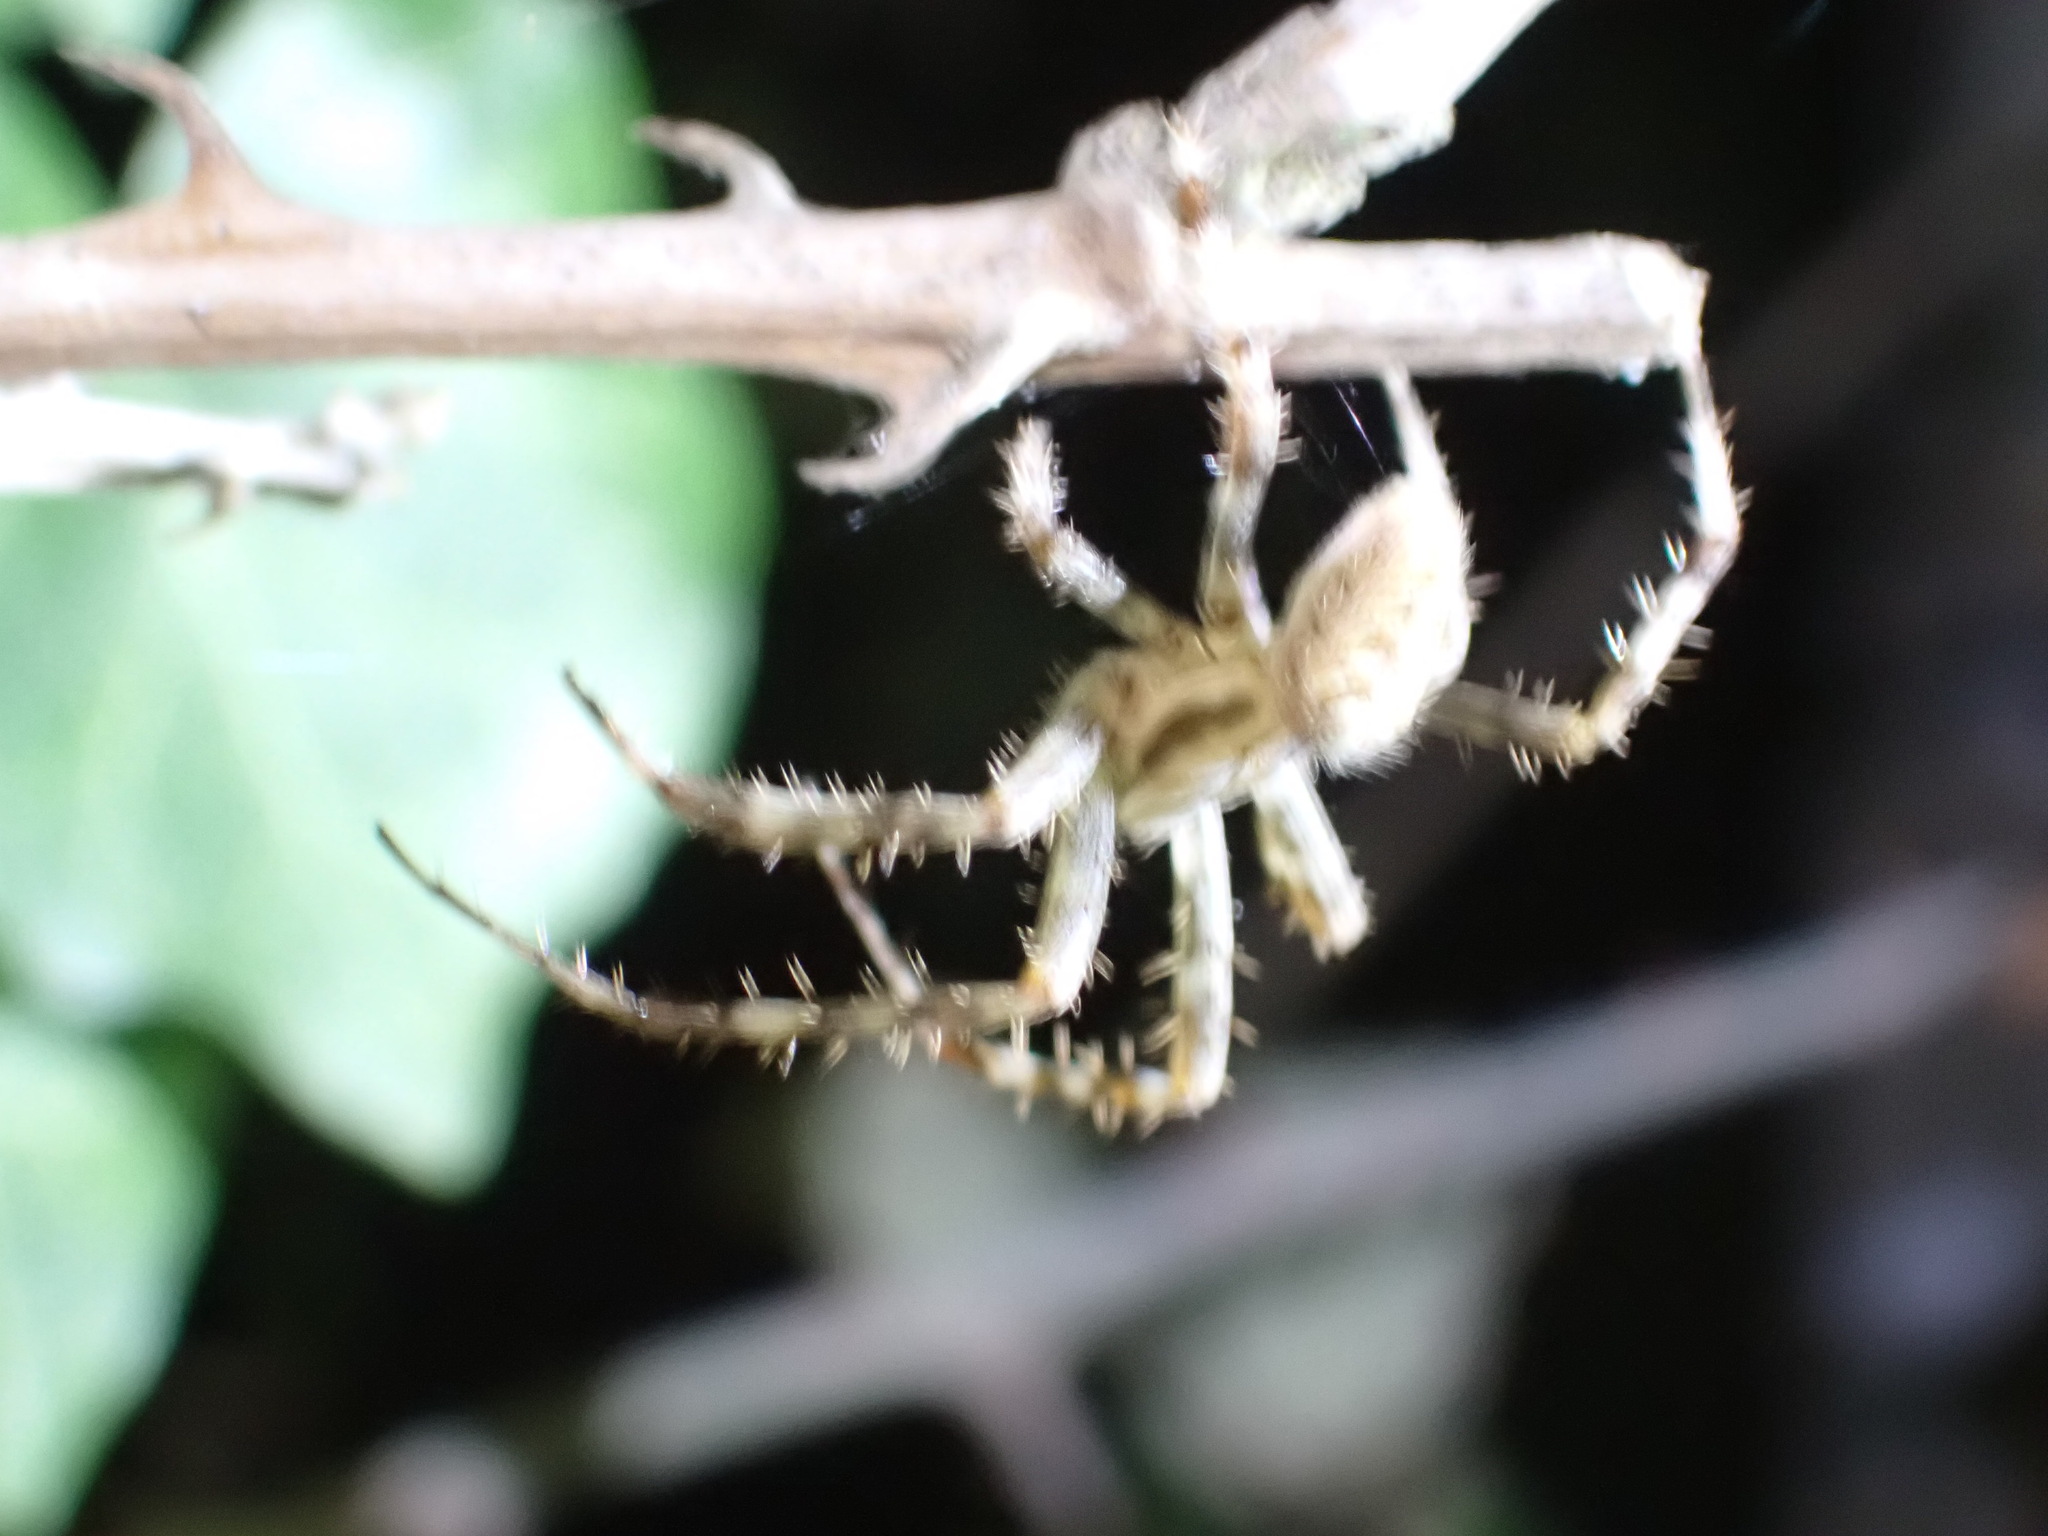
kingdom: Animalia
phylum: Arthropoda
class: Arachnida
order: Araneae
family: Araneidae
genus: Araneus
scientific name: Araneus diadematus
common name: Cross orbweaver
